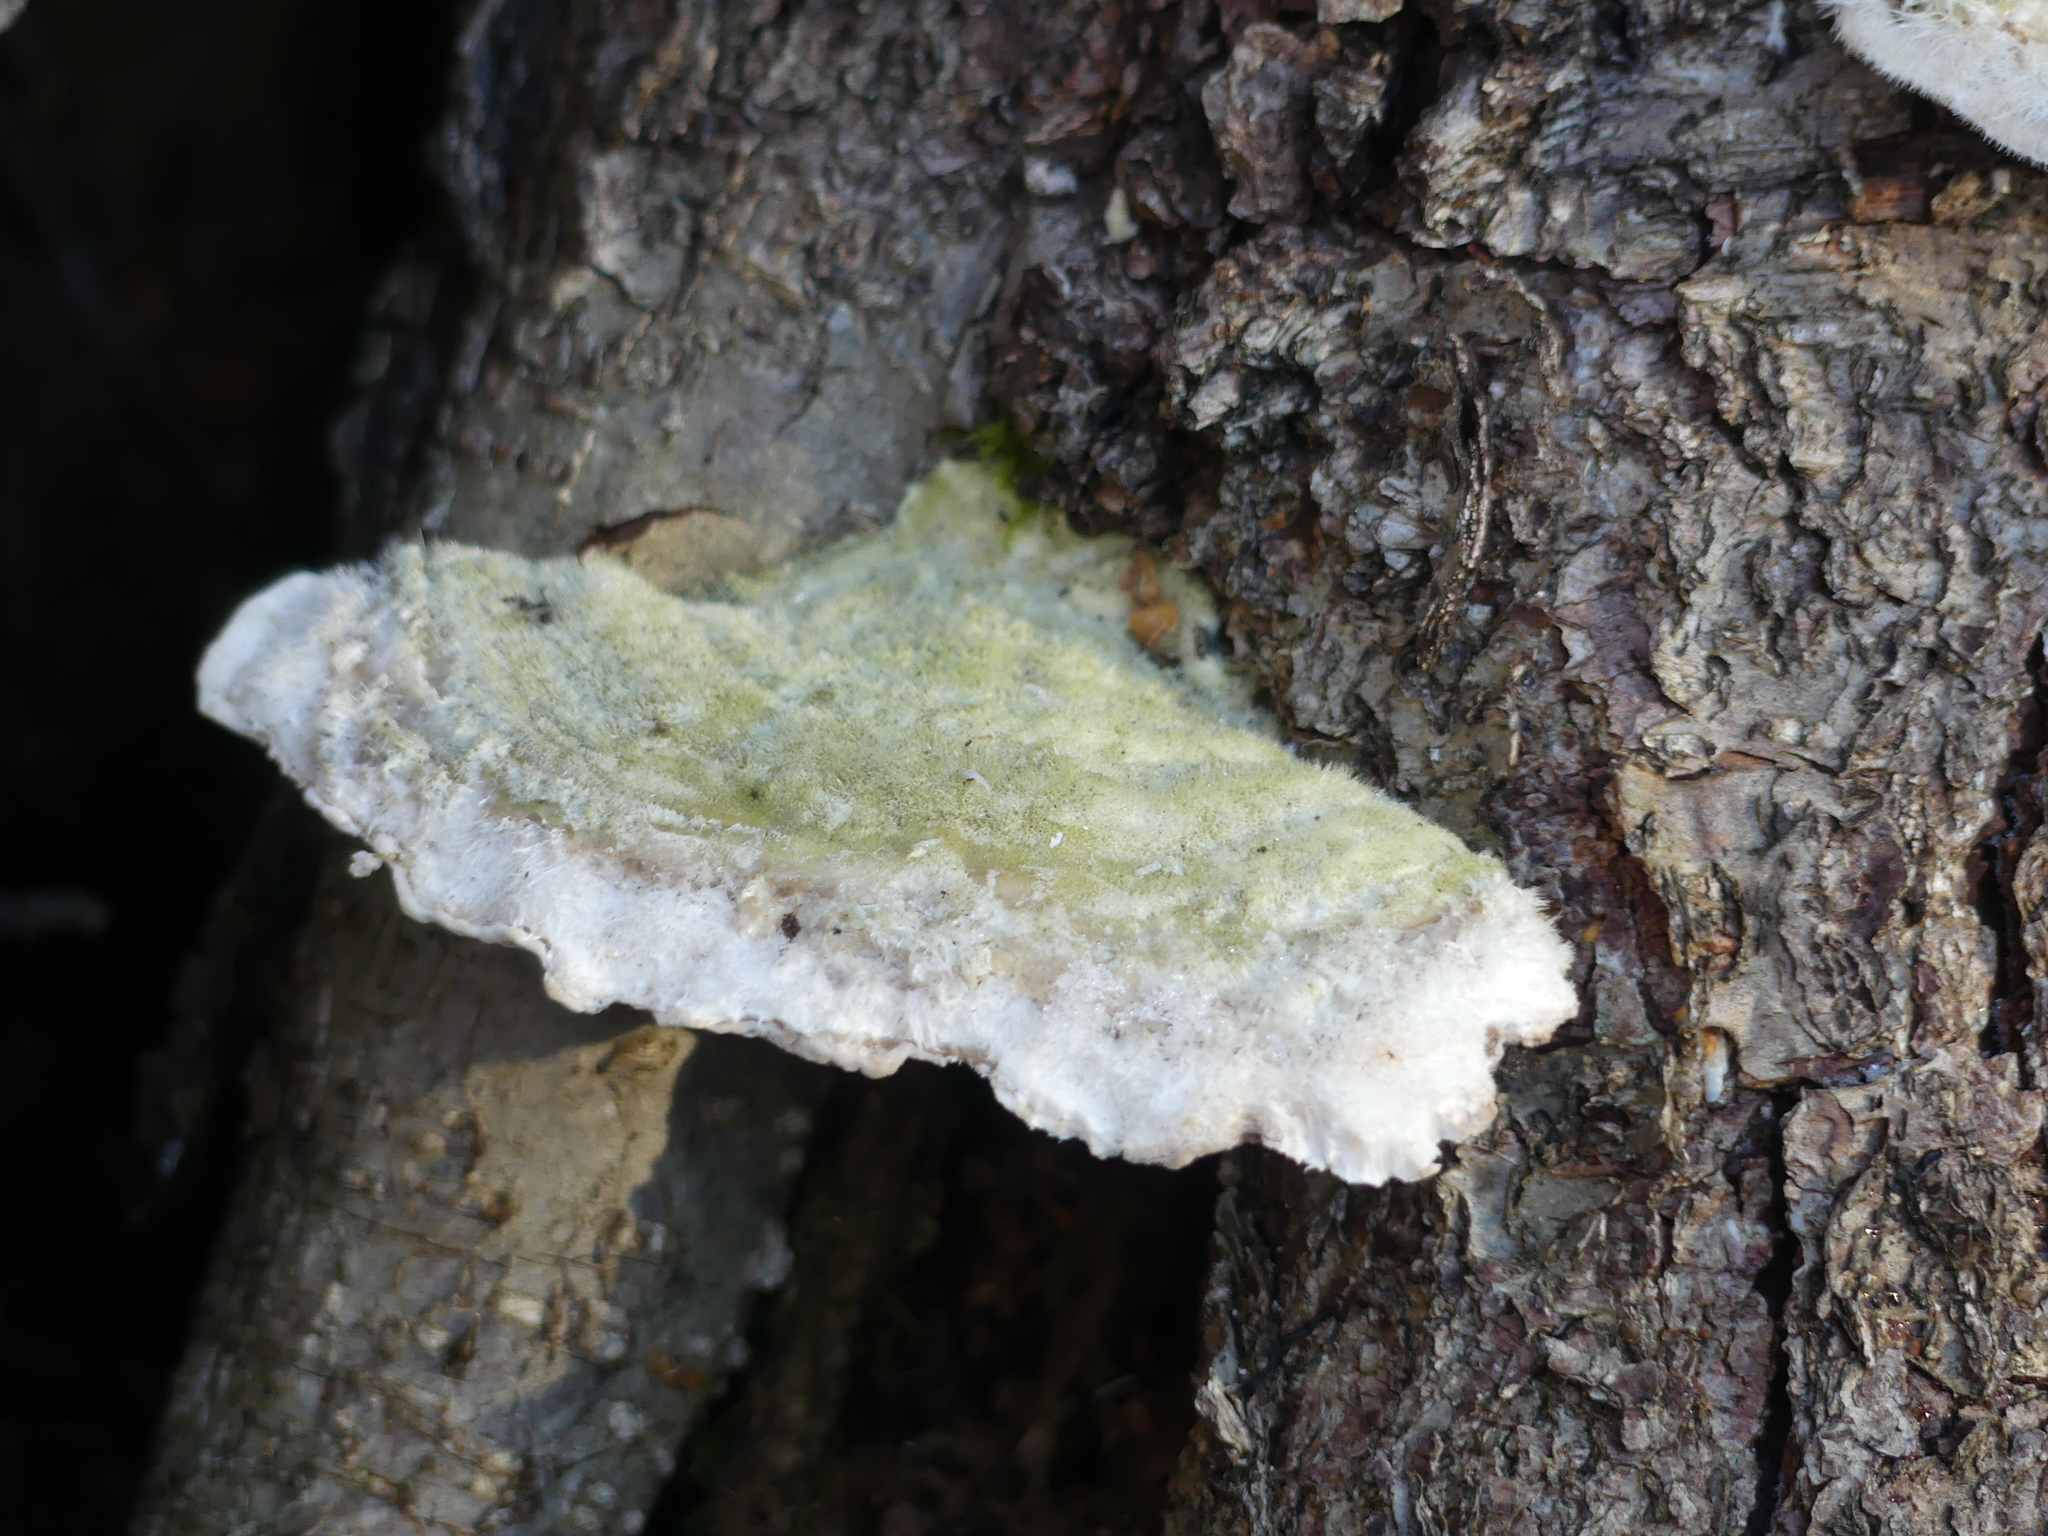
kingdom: Fungi
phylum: Basidiomycota
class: Agaricomycetes
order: Polyporales
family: Polyporaceae
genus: Trametes
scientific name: Trametes hirsuta
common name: Hairy bracket
